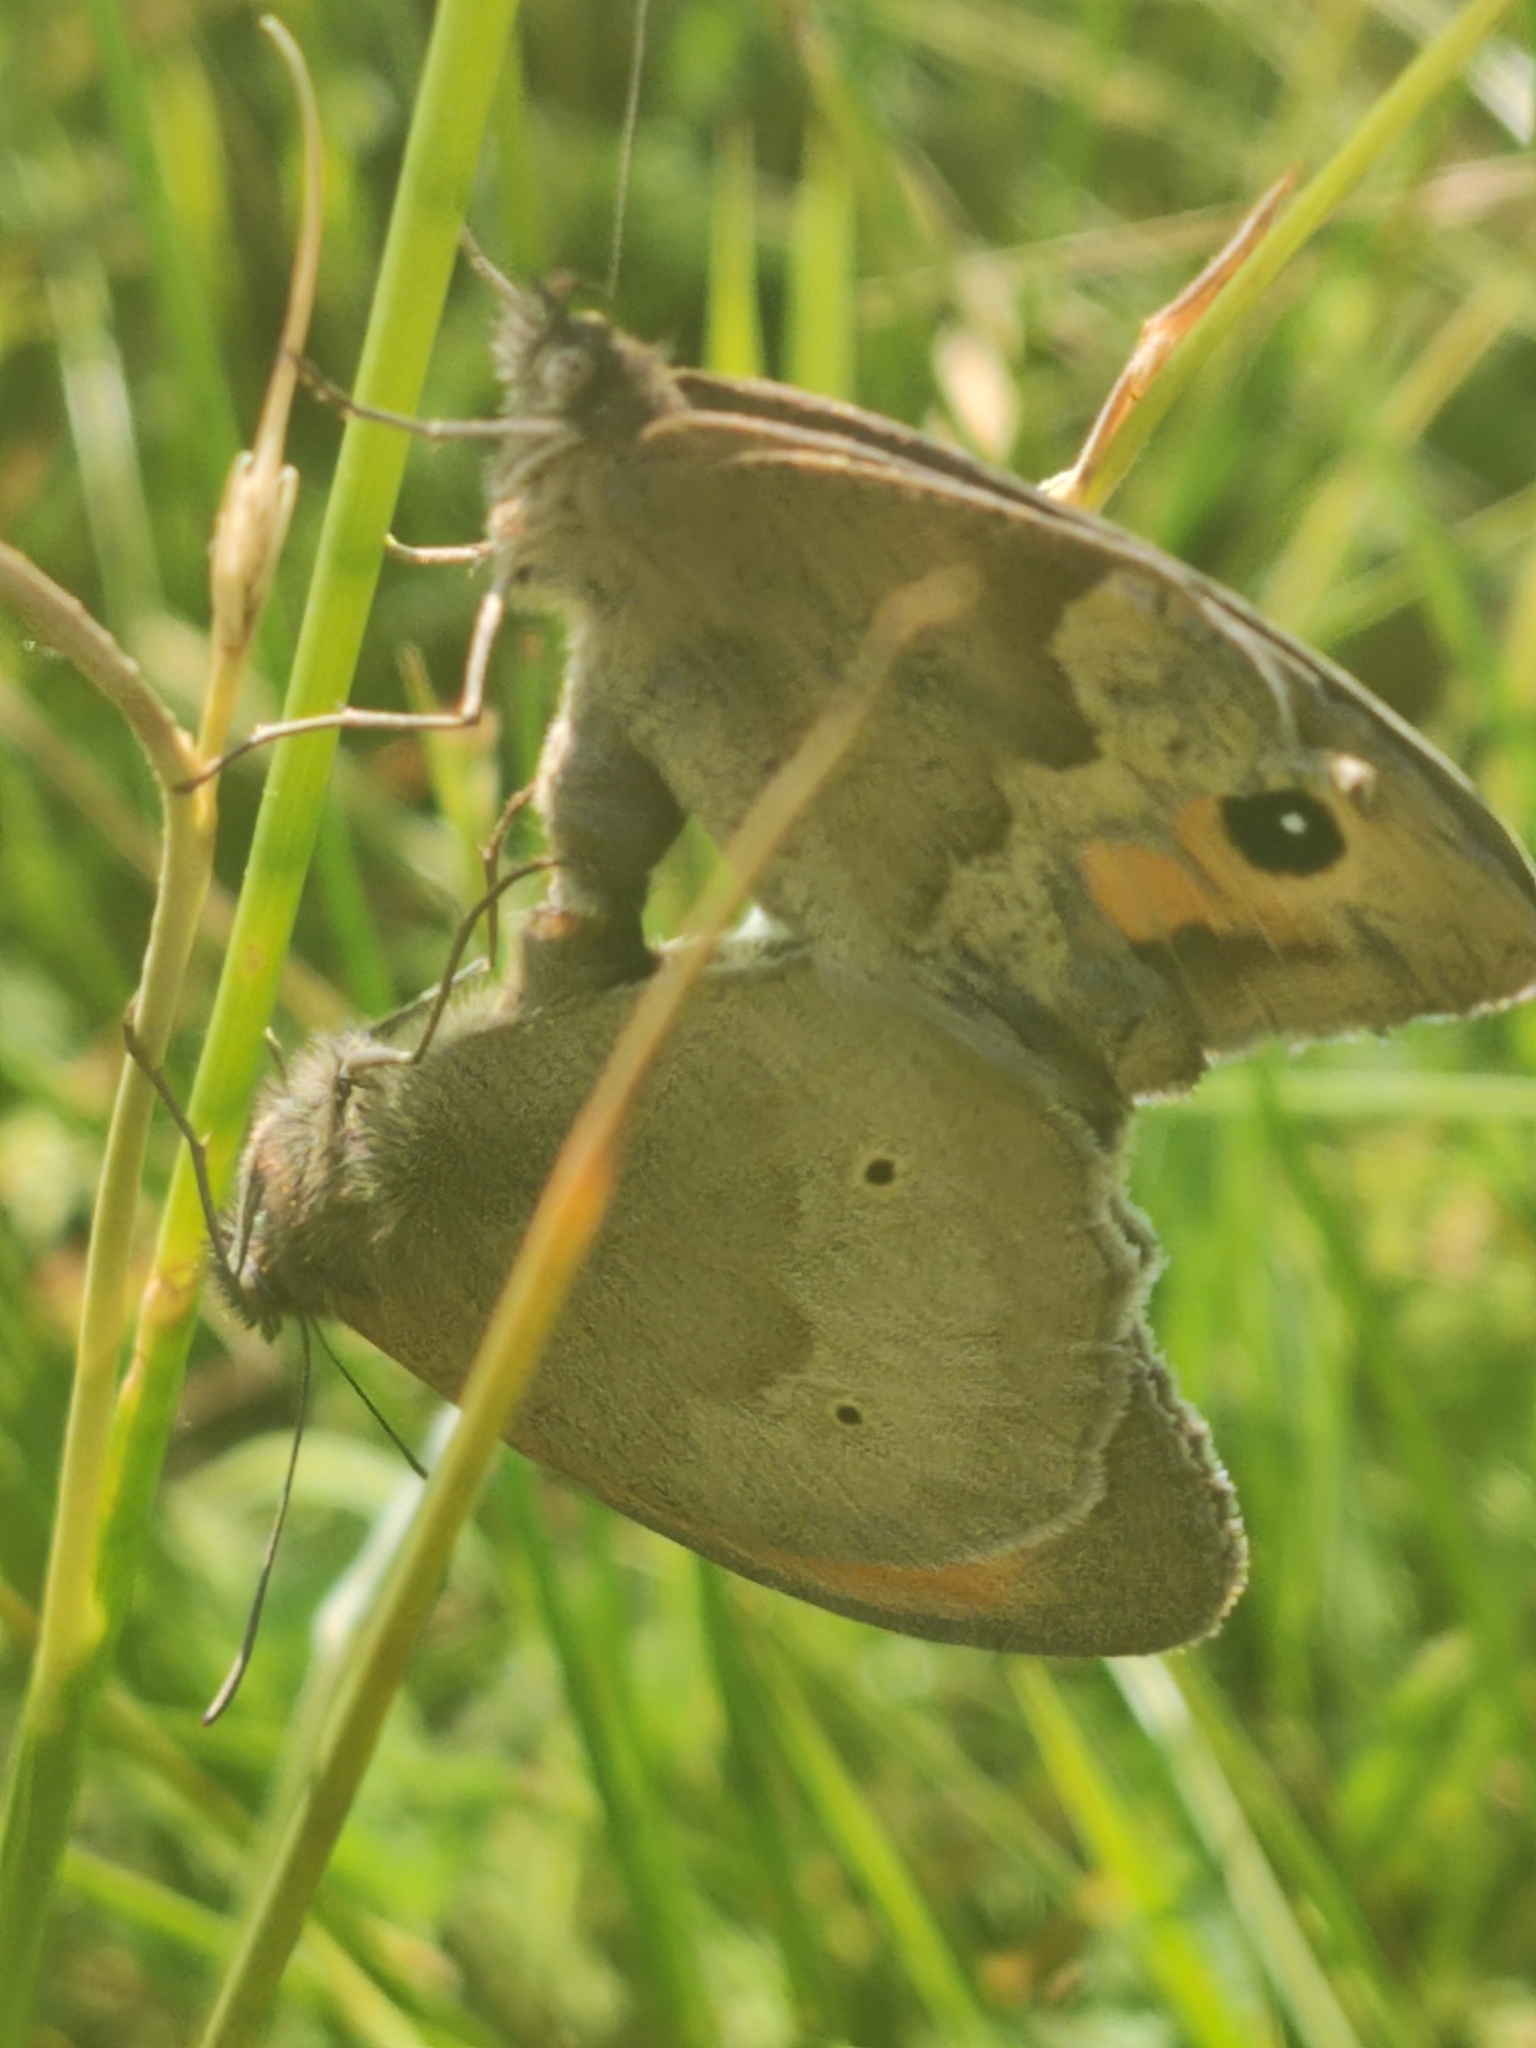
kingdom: Animalia
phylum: Arthropoda
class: Insecta
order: Lepidoptera
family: Nymphalidae
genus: Maniola
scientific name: Maniola jurtina
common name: Meadow brown
